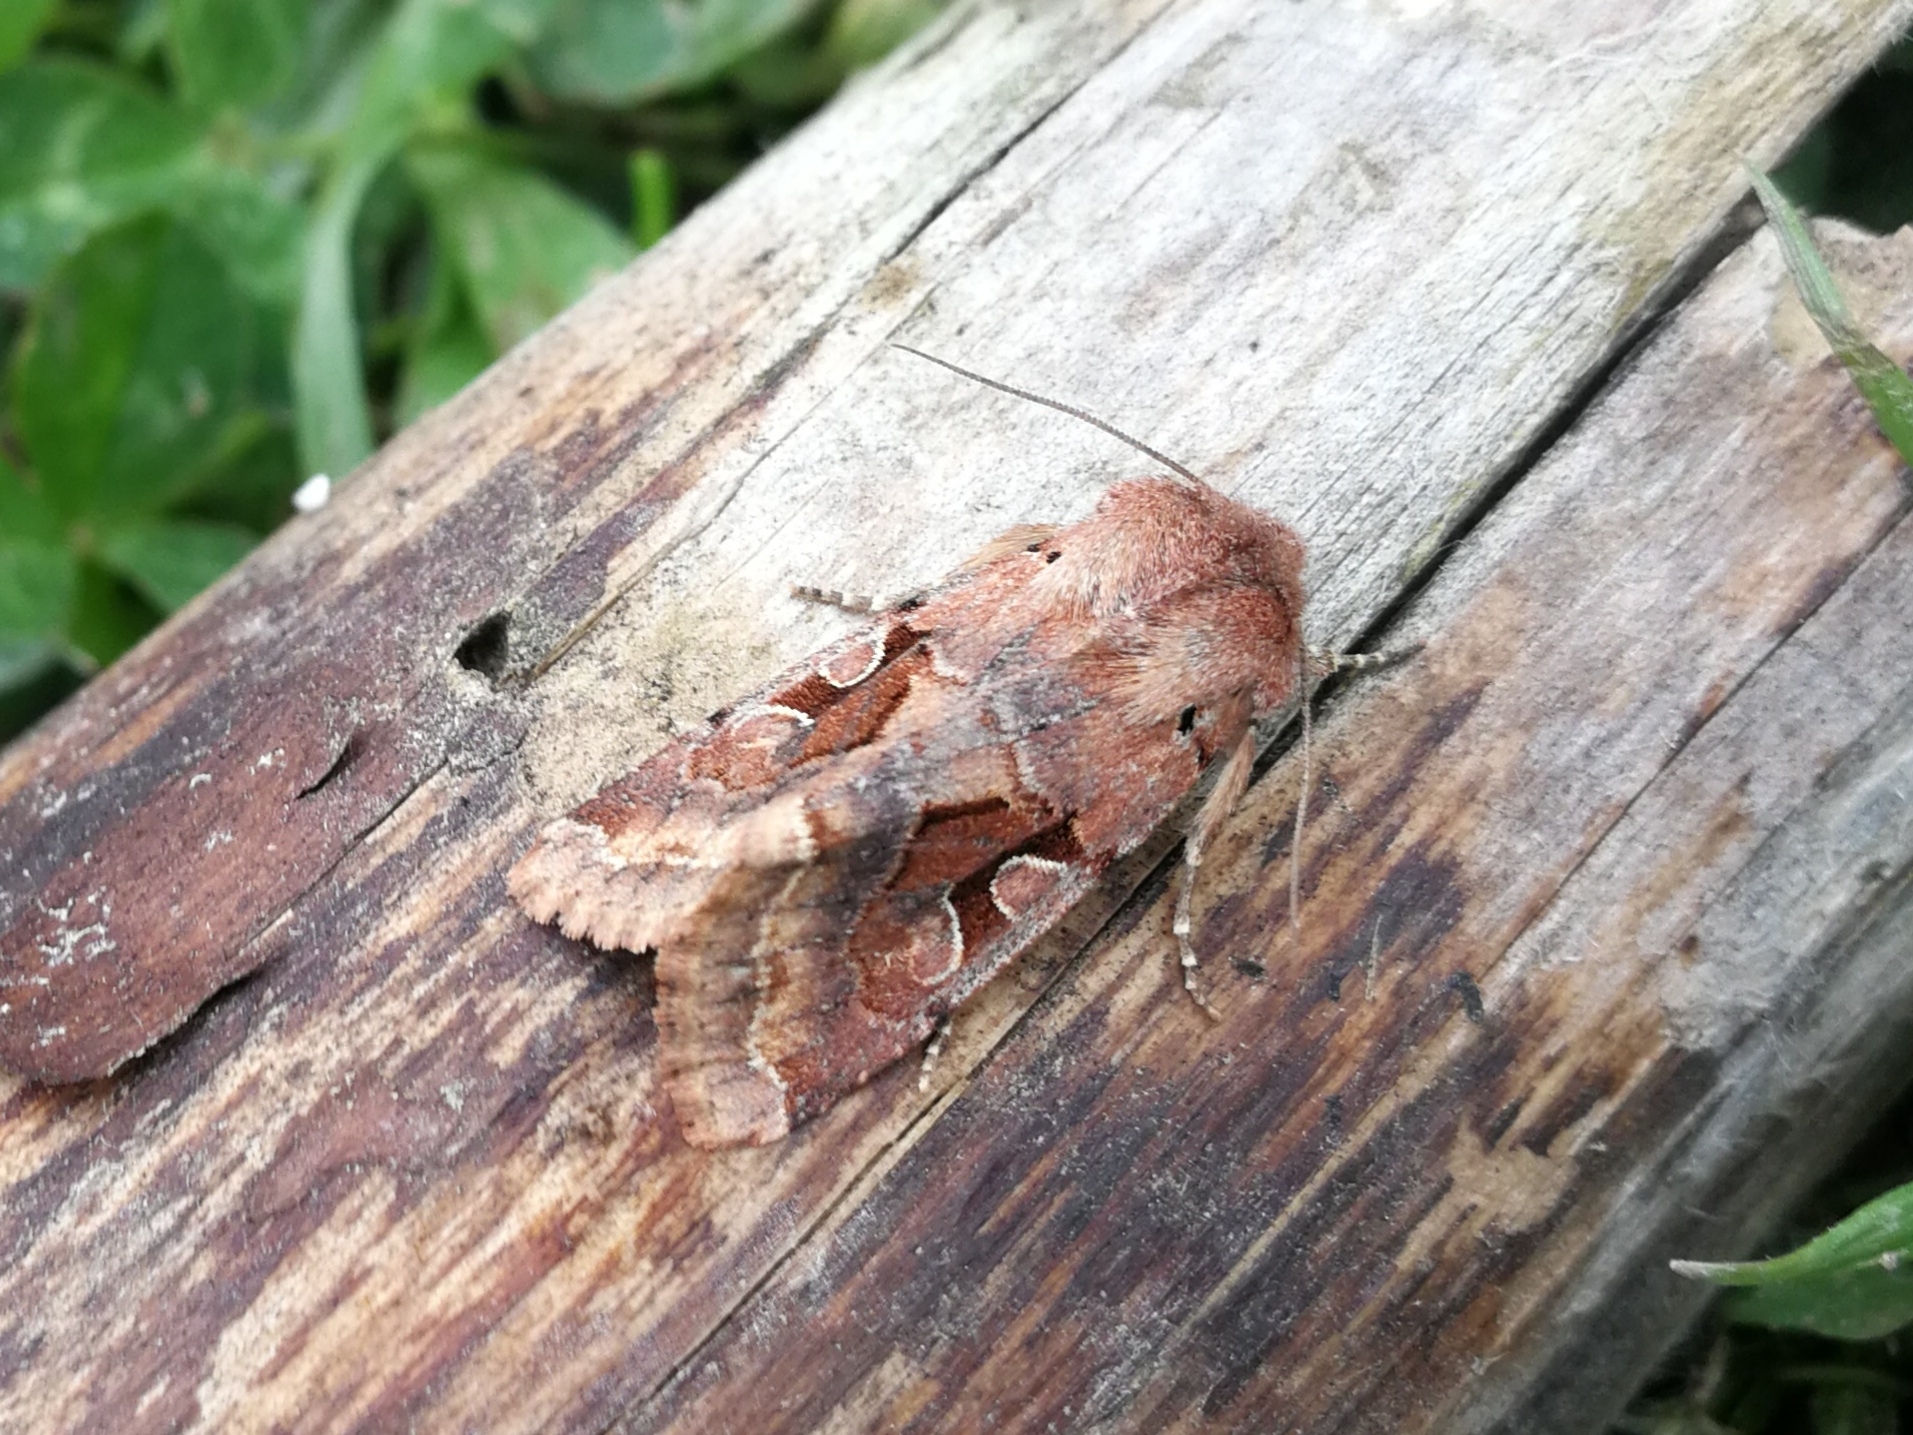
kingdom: Animalia
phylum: Arthropoda
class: Insecta
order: Lepidoptera
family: Noctuidae
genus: Orthosia
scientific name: Orthosia gothica
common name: Hebrew character
